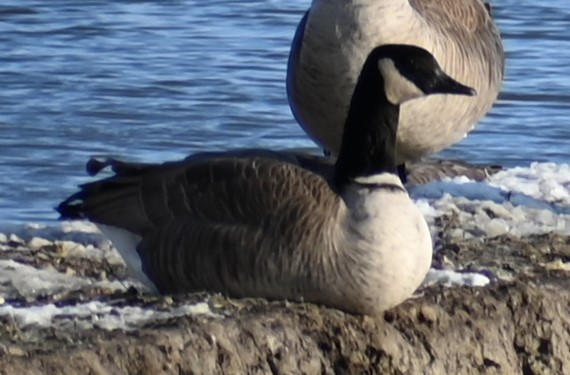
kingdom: Animalia
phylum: Chordata
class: Aves
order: Anseriformes
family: Anatidae
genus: Branta
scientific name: Branta canadensis
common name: Canada goose
